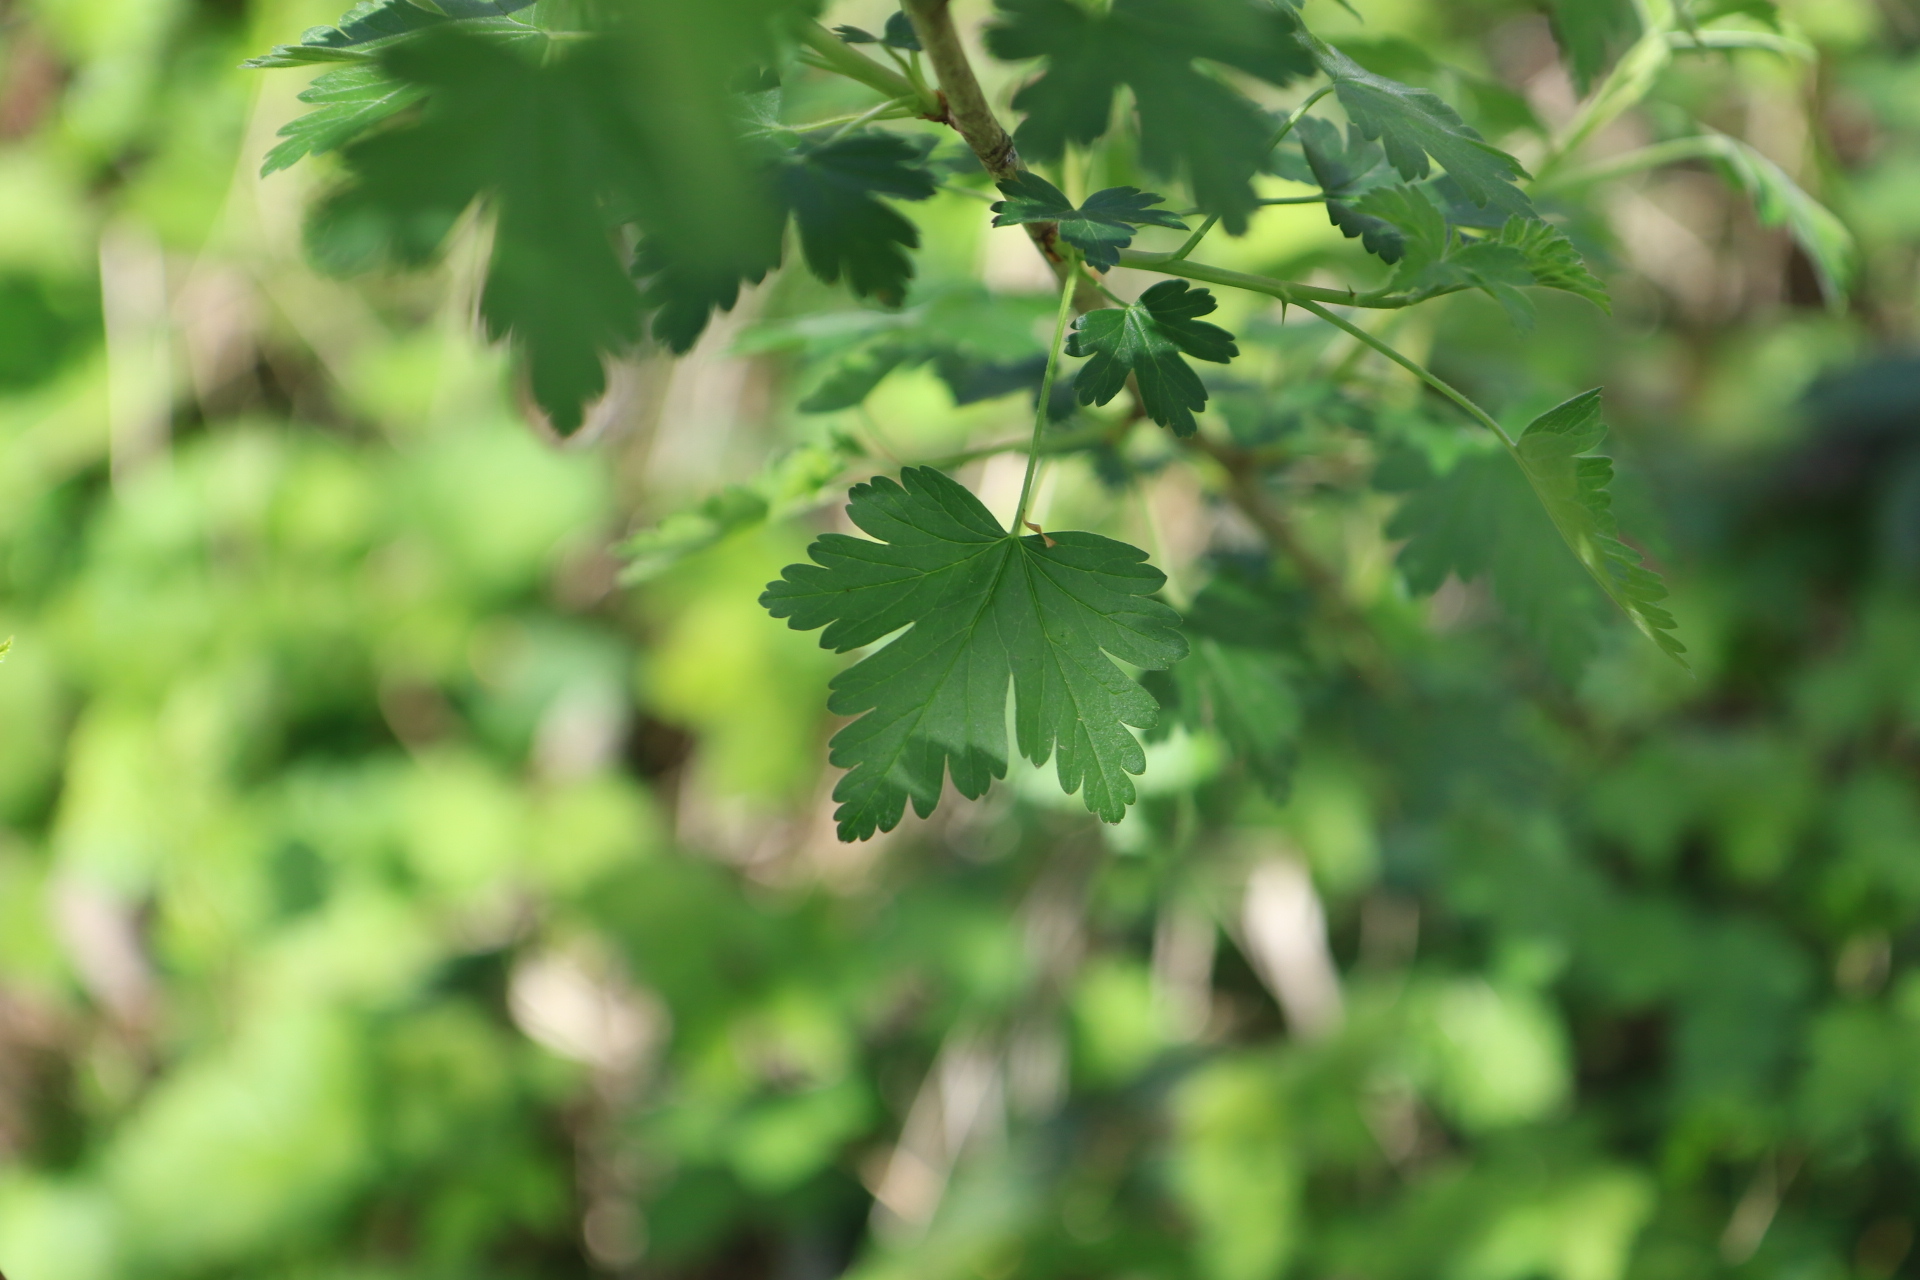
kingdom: Plantae
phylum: Tracheophyta
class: Magnoliopsida
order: Saxifragales
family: Grossulariaceae
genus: Ribes
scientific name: Ribes divaricatum
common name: Wild black gooseberry
